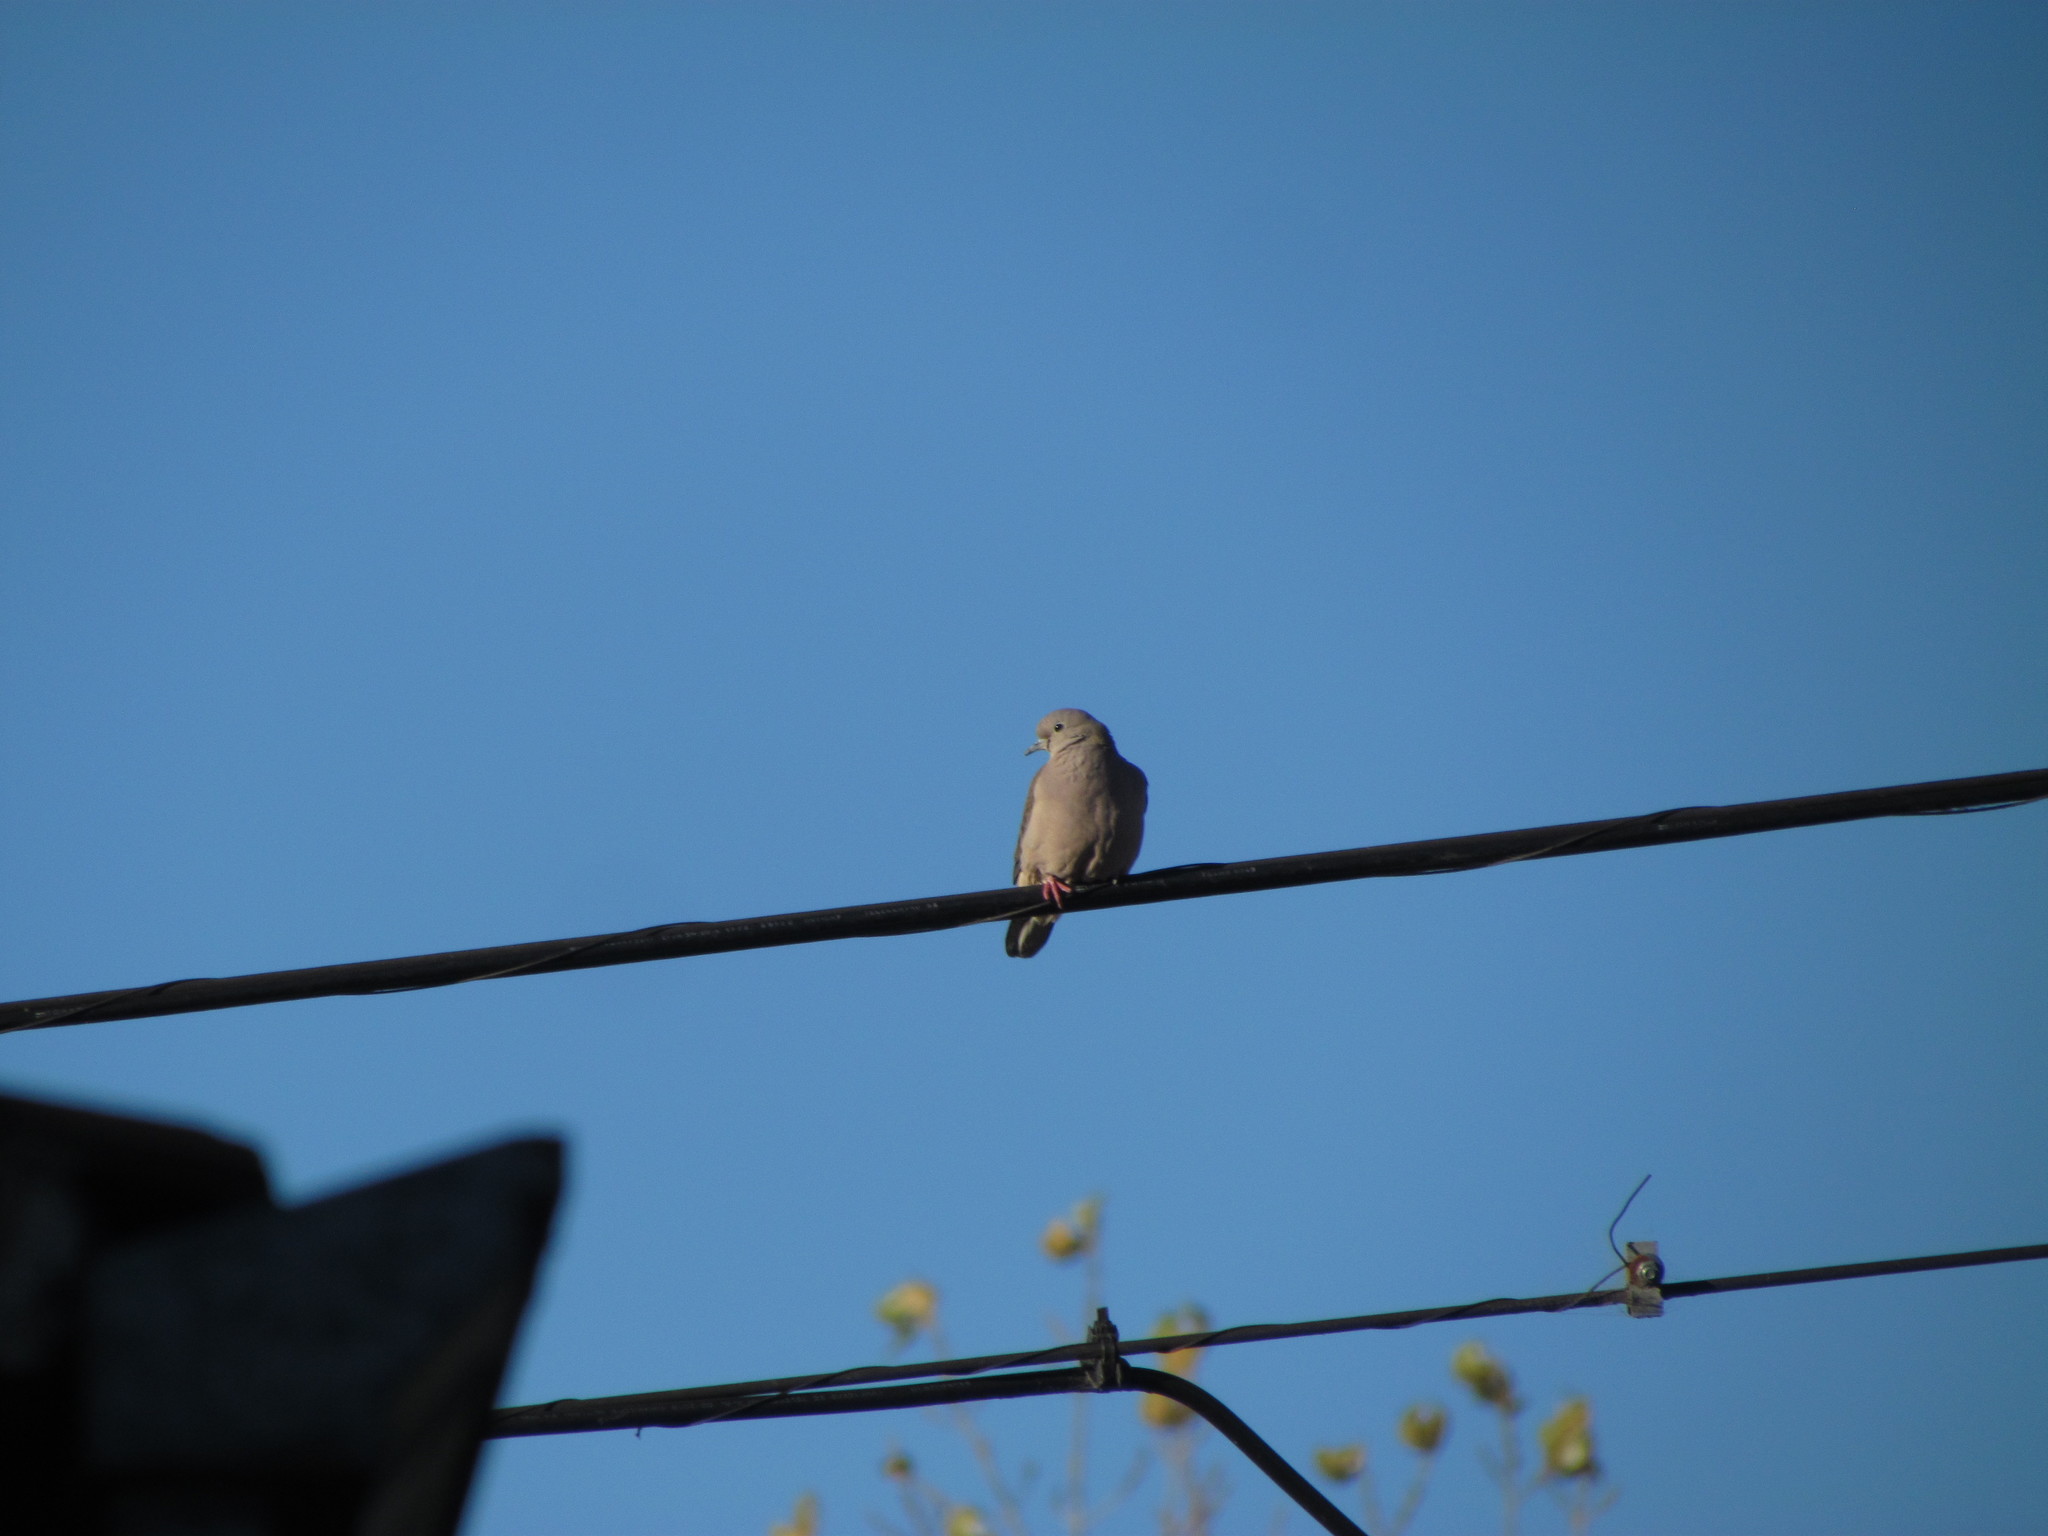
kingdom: Animalia
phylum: Chordata
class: Aves
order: Columbiformes
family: Columbidae
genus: Zenaida
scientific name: Zenaida auriculata
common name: Eared dove
